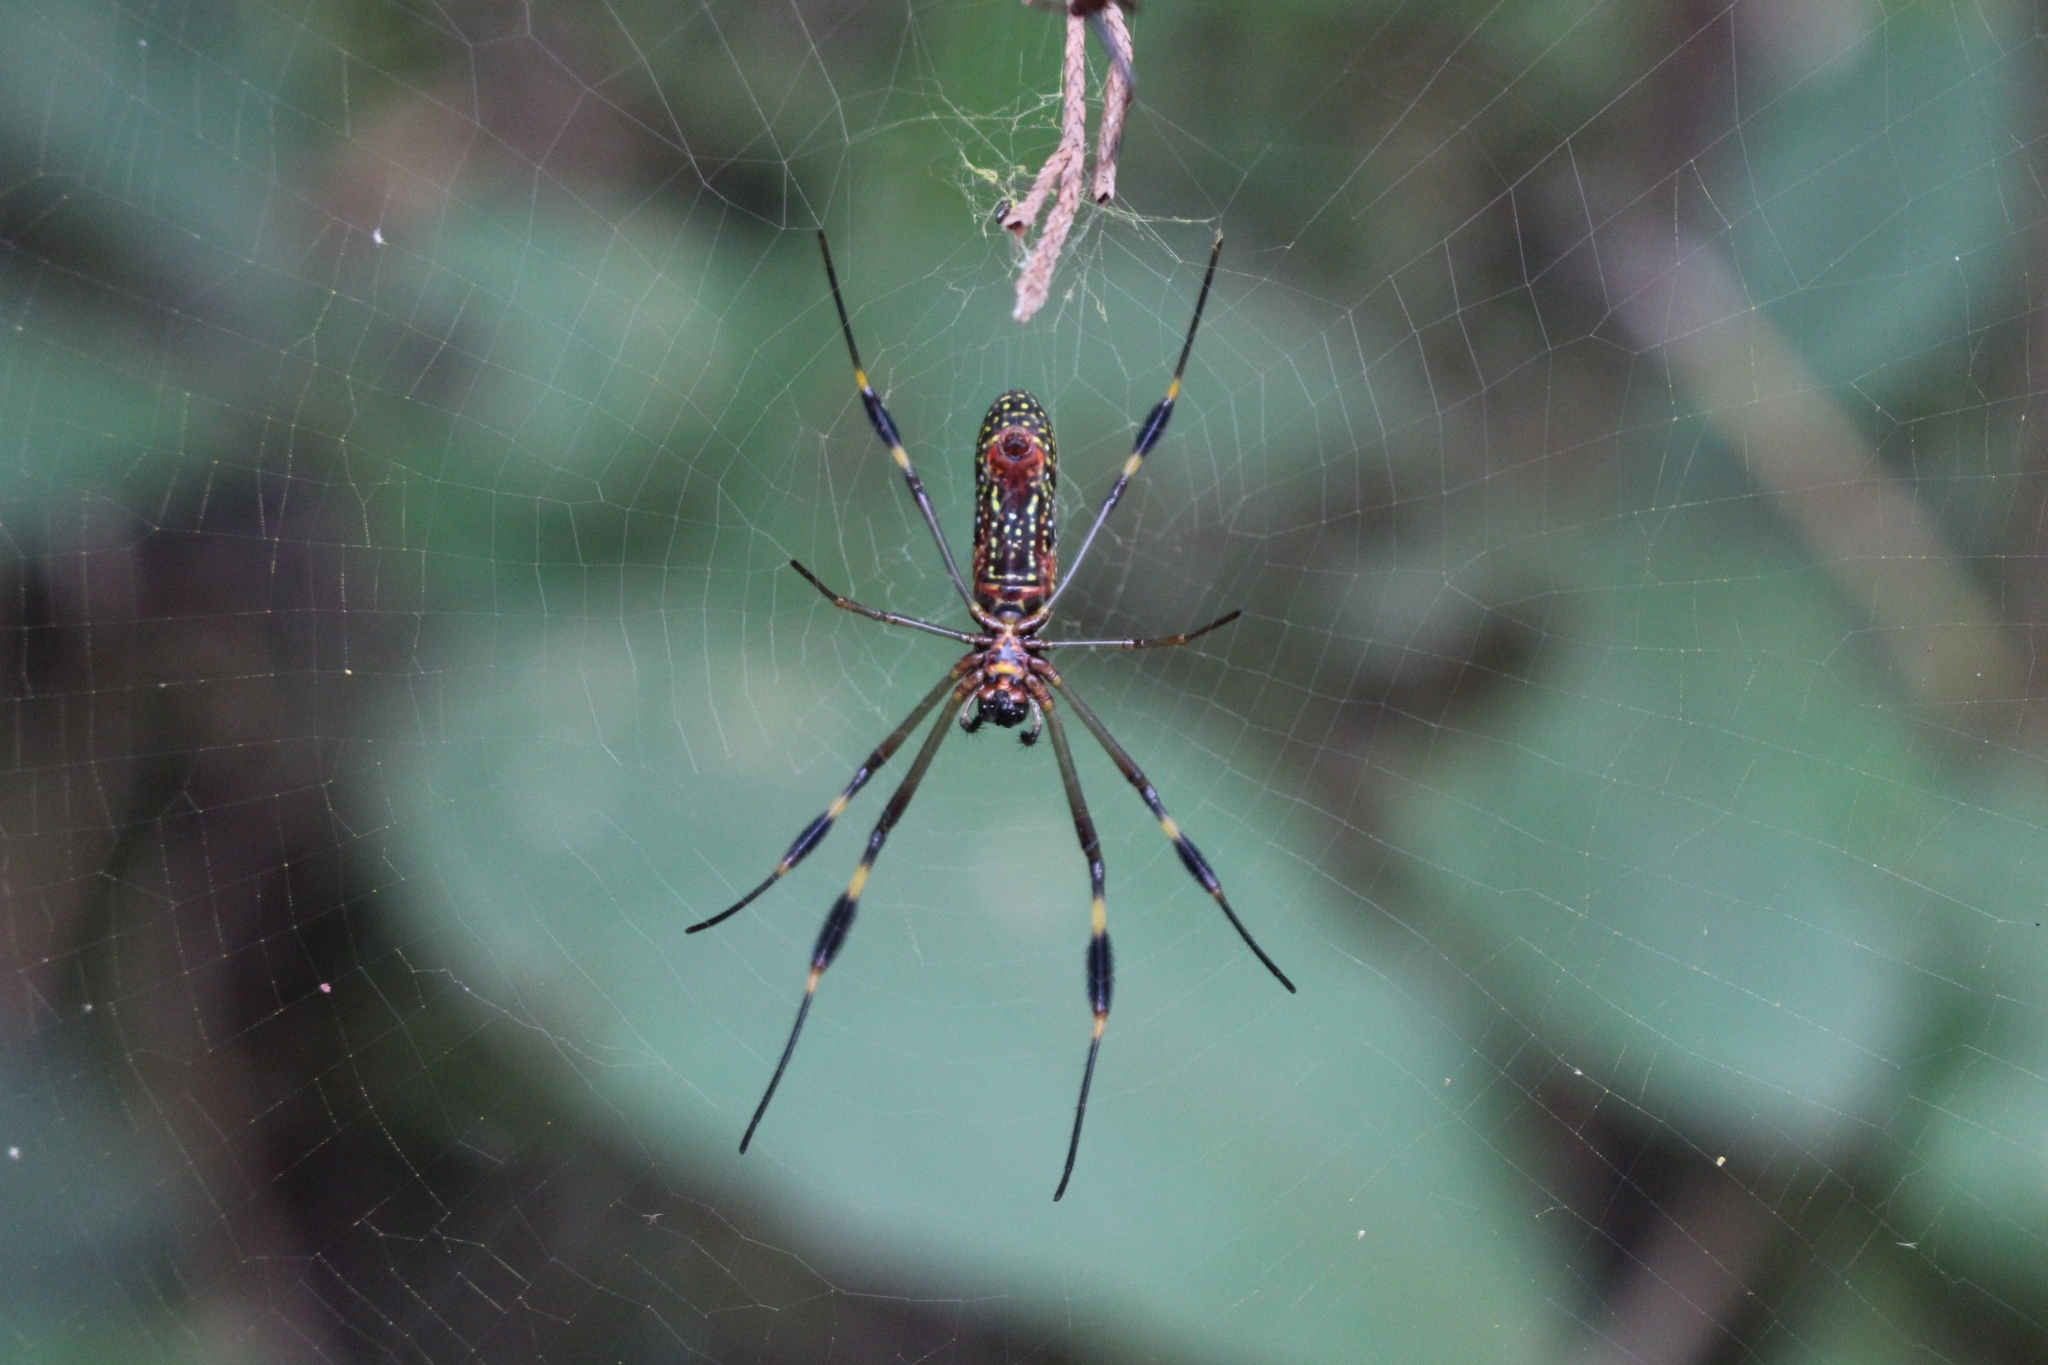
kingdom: Animalia
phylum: Arthropoda
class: Arachnida
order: Araneae
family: Araneidae
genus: Trichonephila
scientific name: Trichonephila clavipes
